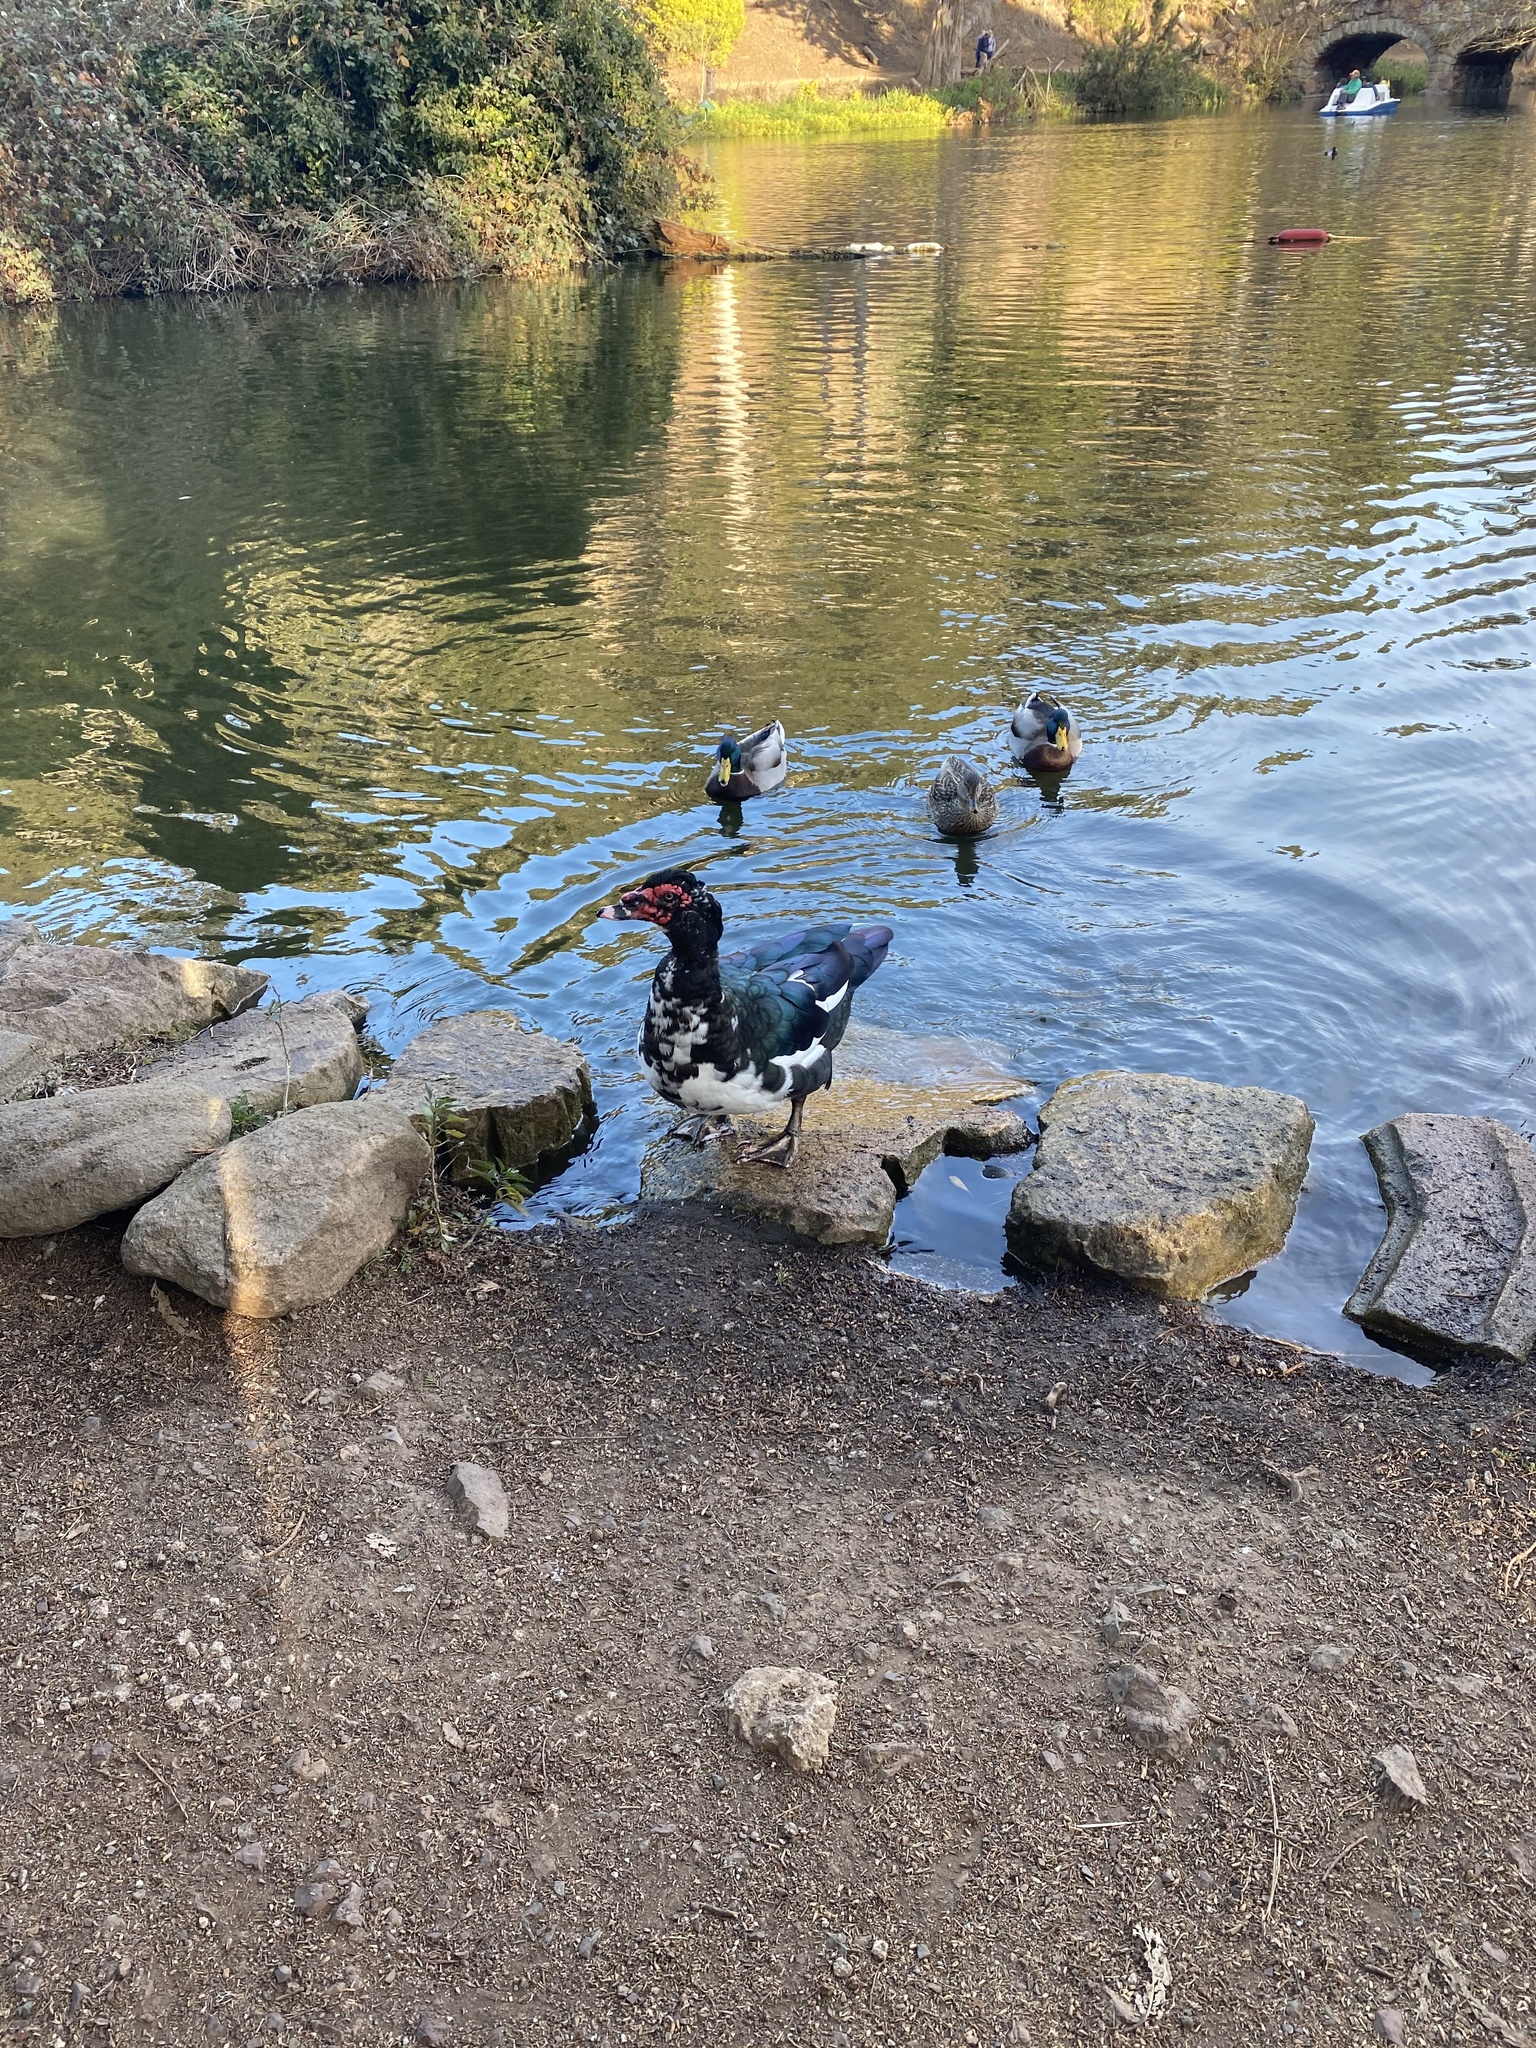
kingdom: Animalia
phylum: Chordata
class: Aves
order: Anseriformes
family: Anatidae
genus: Cairina
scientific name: Cairina moschata
